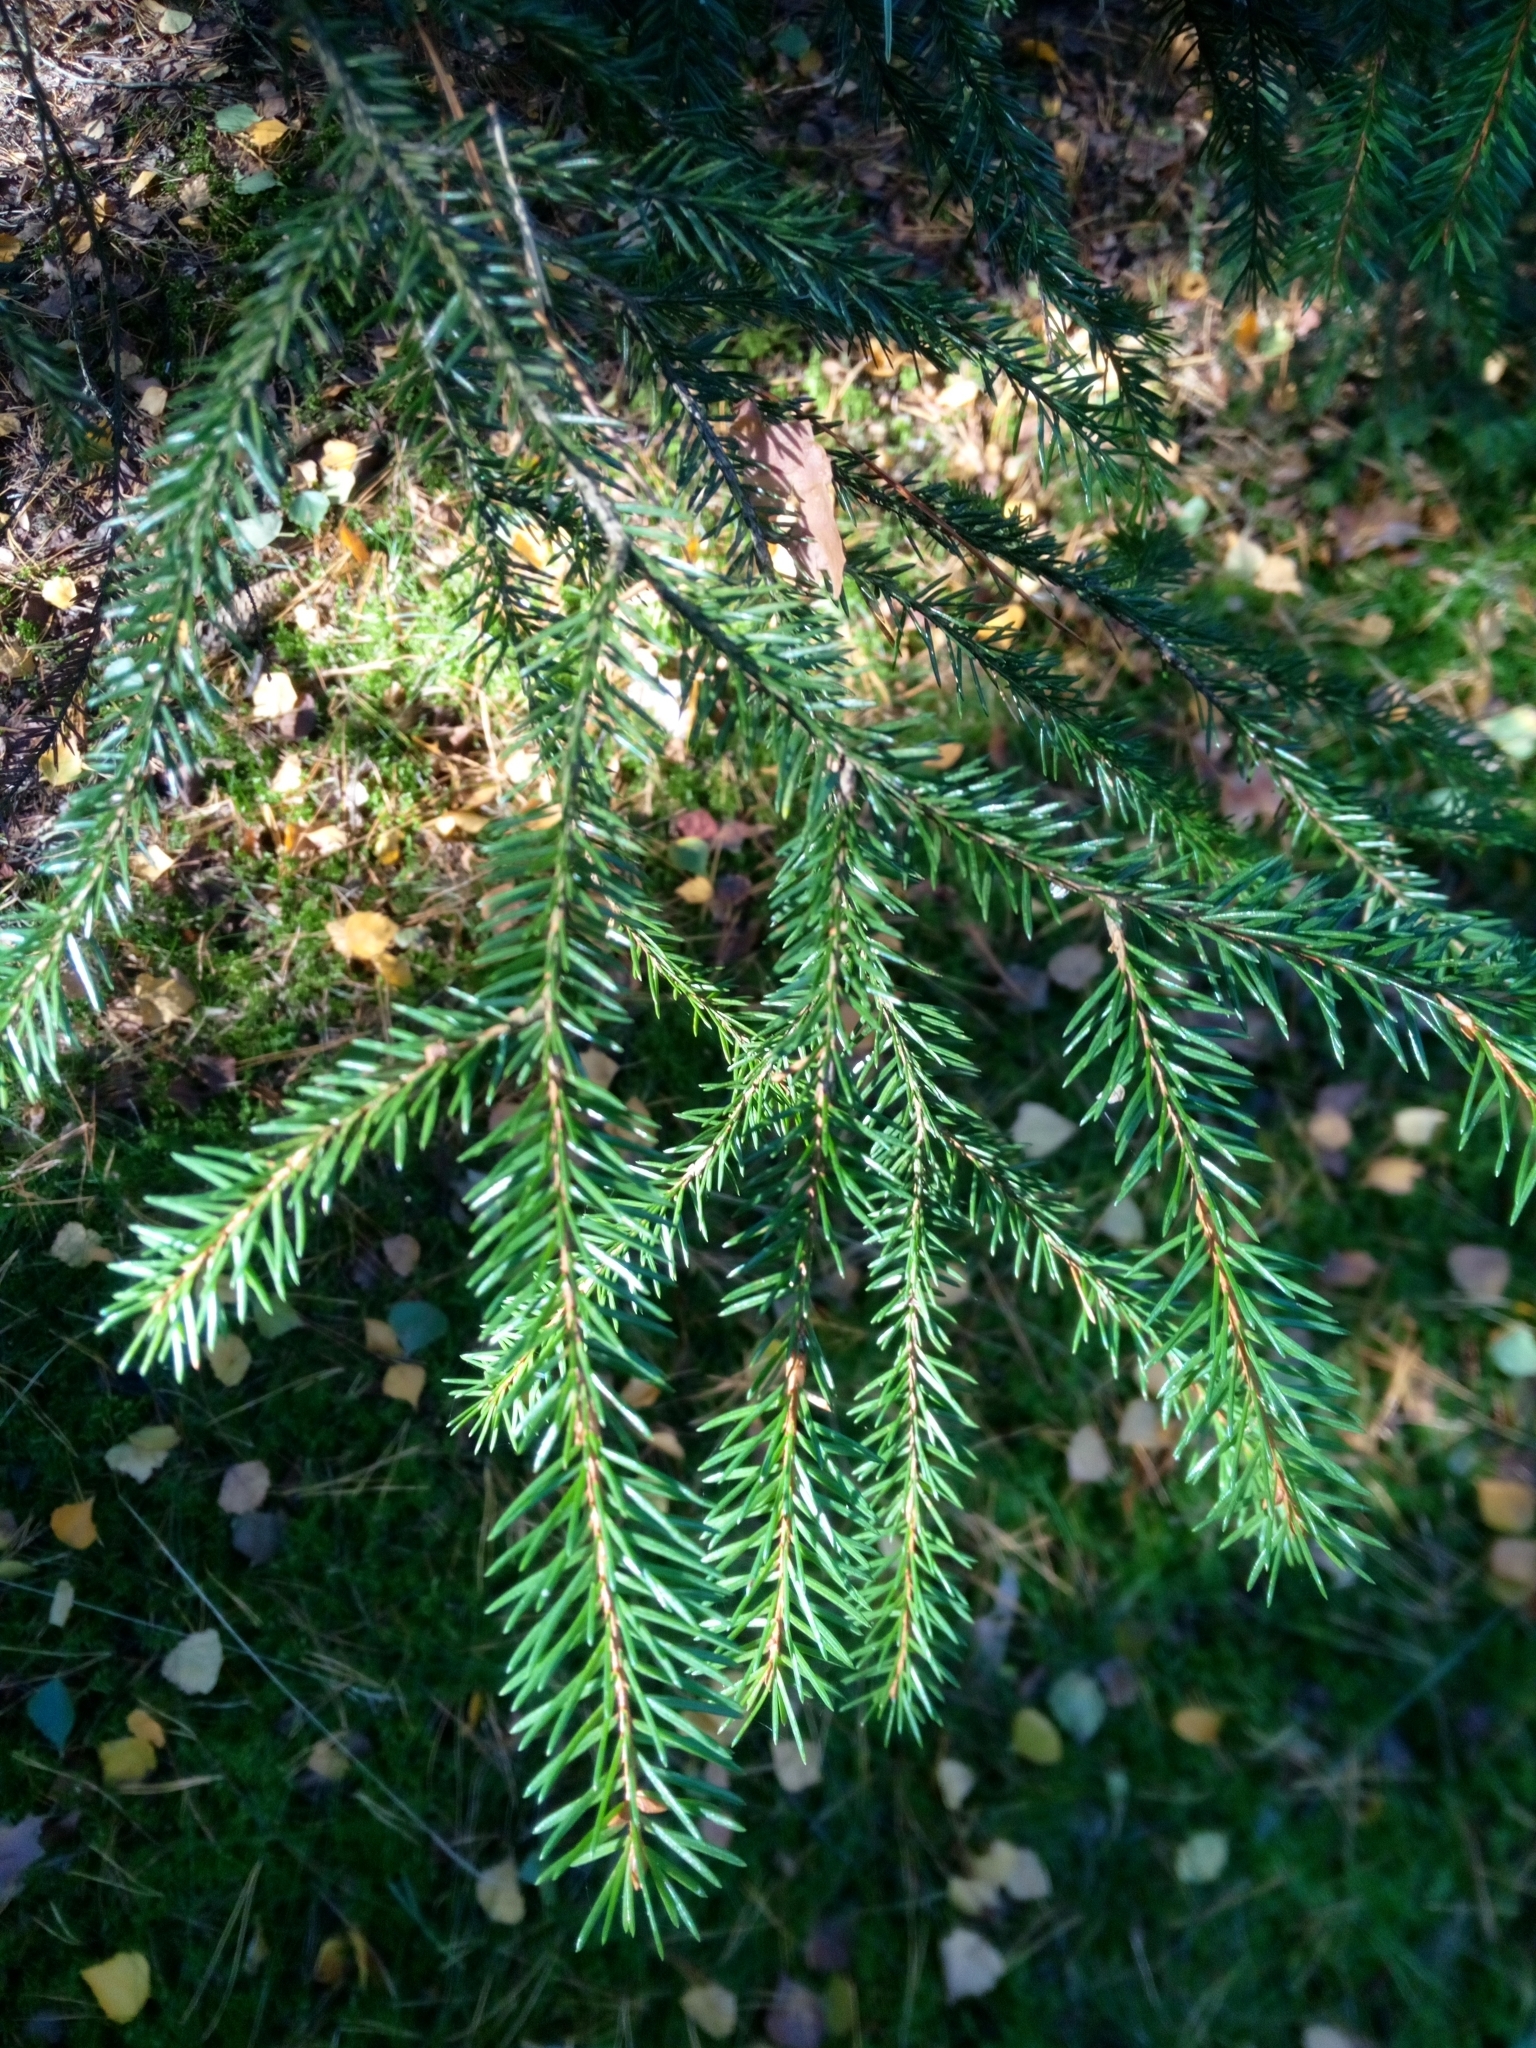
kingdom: Plantae
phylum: Tracheophyta
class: Pinopsida
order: Pinales
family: Pinaceae
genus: Picea
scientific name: Picea abies
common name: Norway spruce
